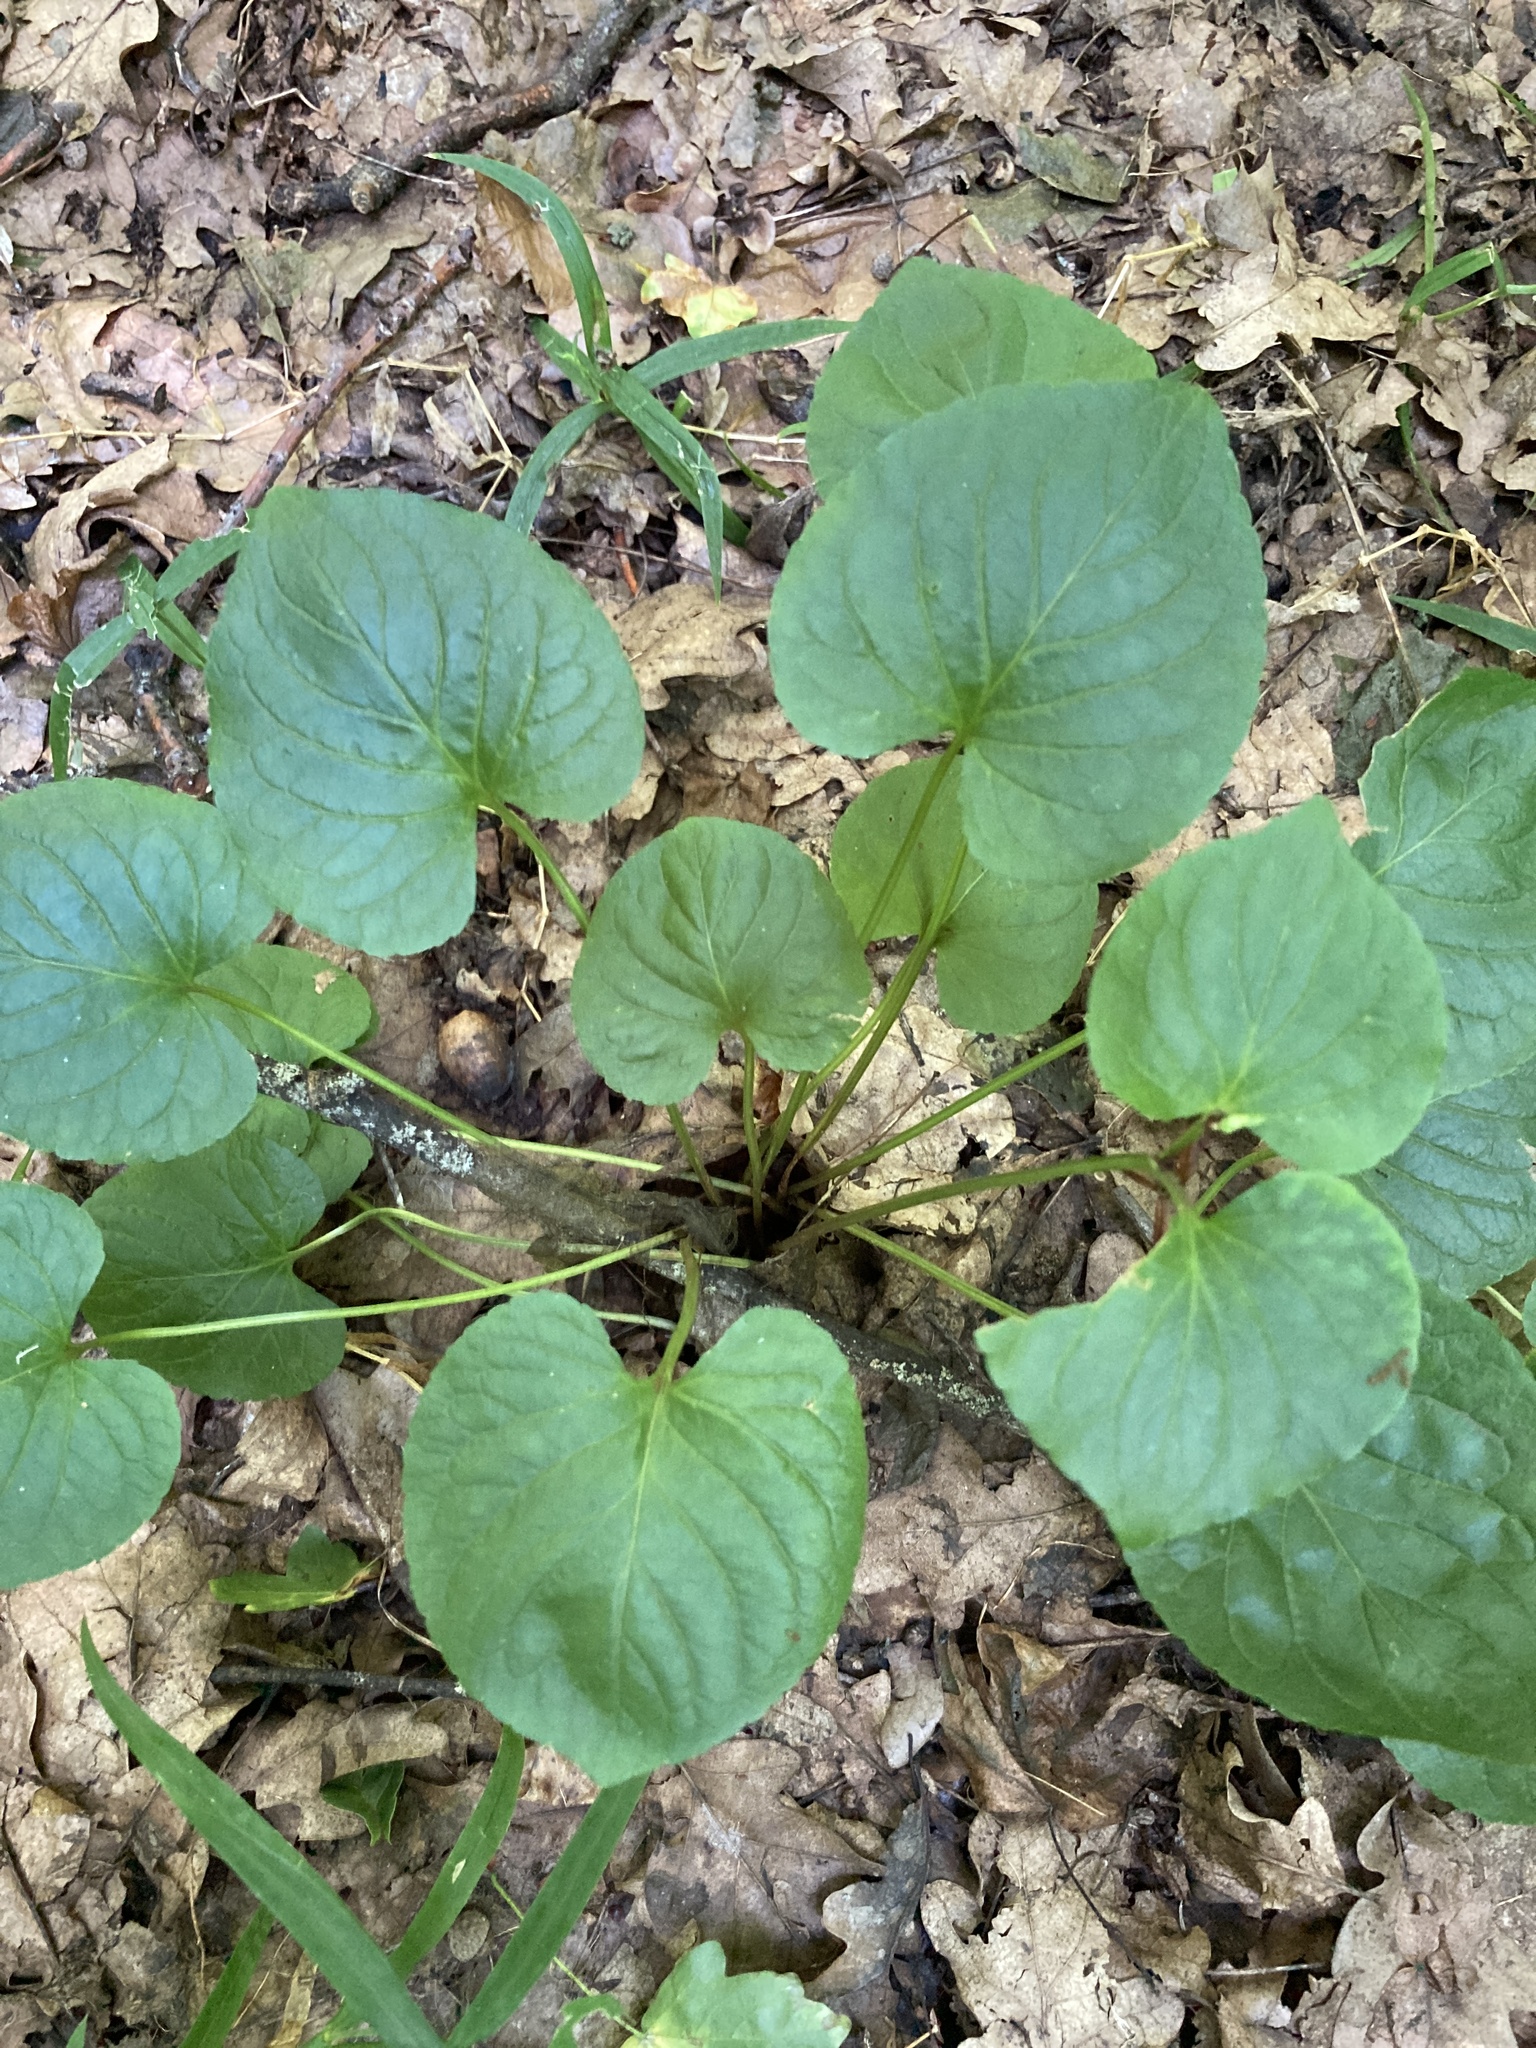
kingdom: Plantae
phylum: Tracheophyta
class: Magnoliopsida
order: Malpighiales
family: Violaceae
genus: Viola
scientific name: Viola mirabilis
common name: Wonder violet
